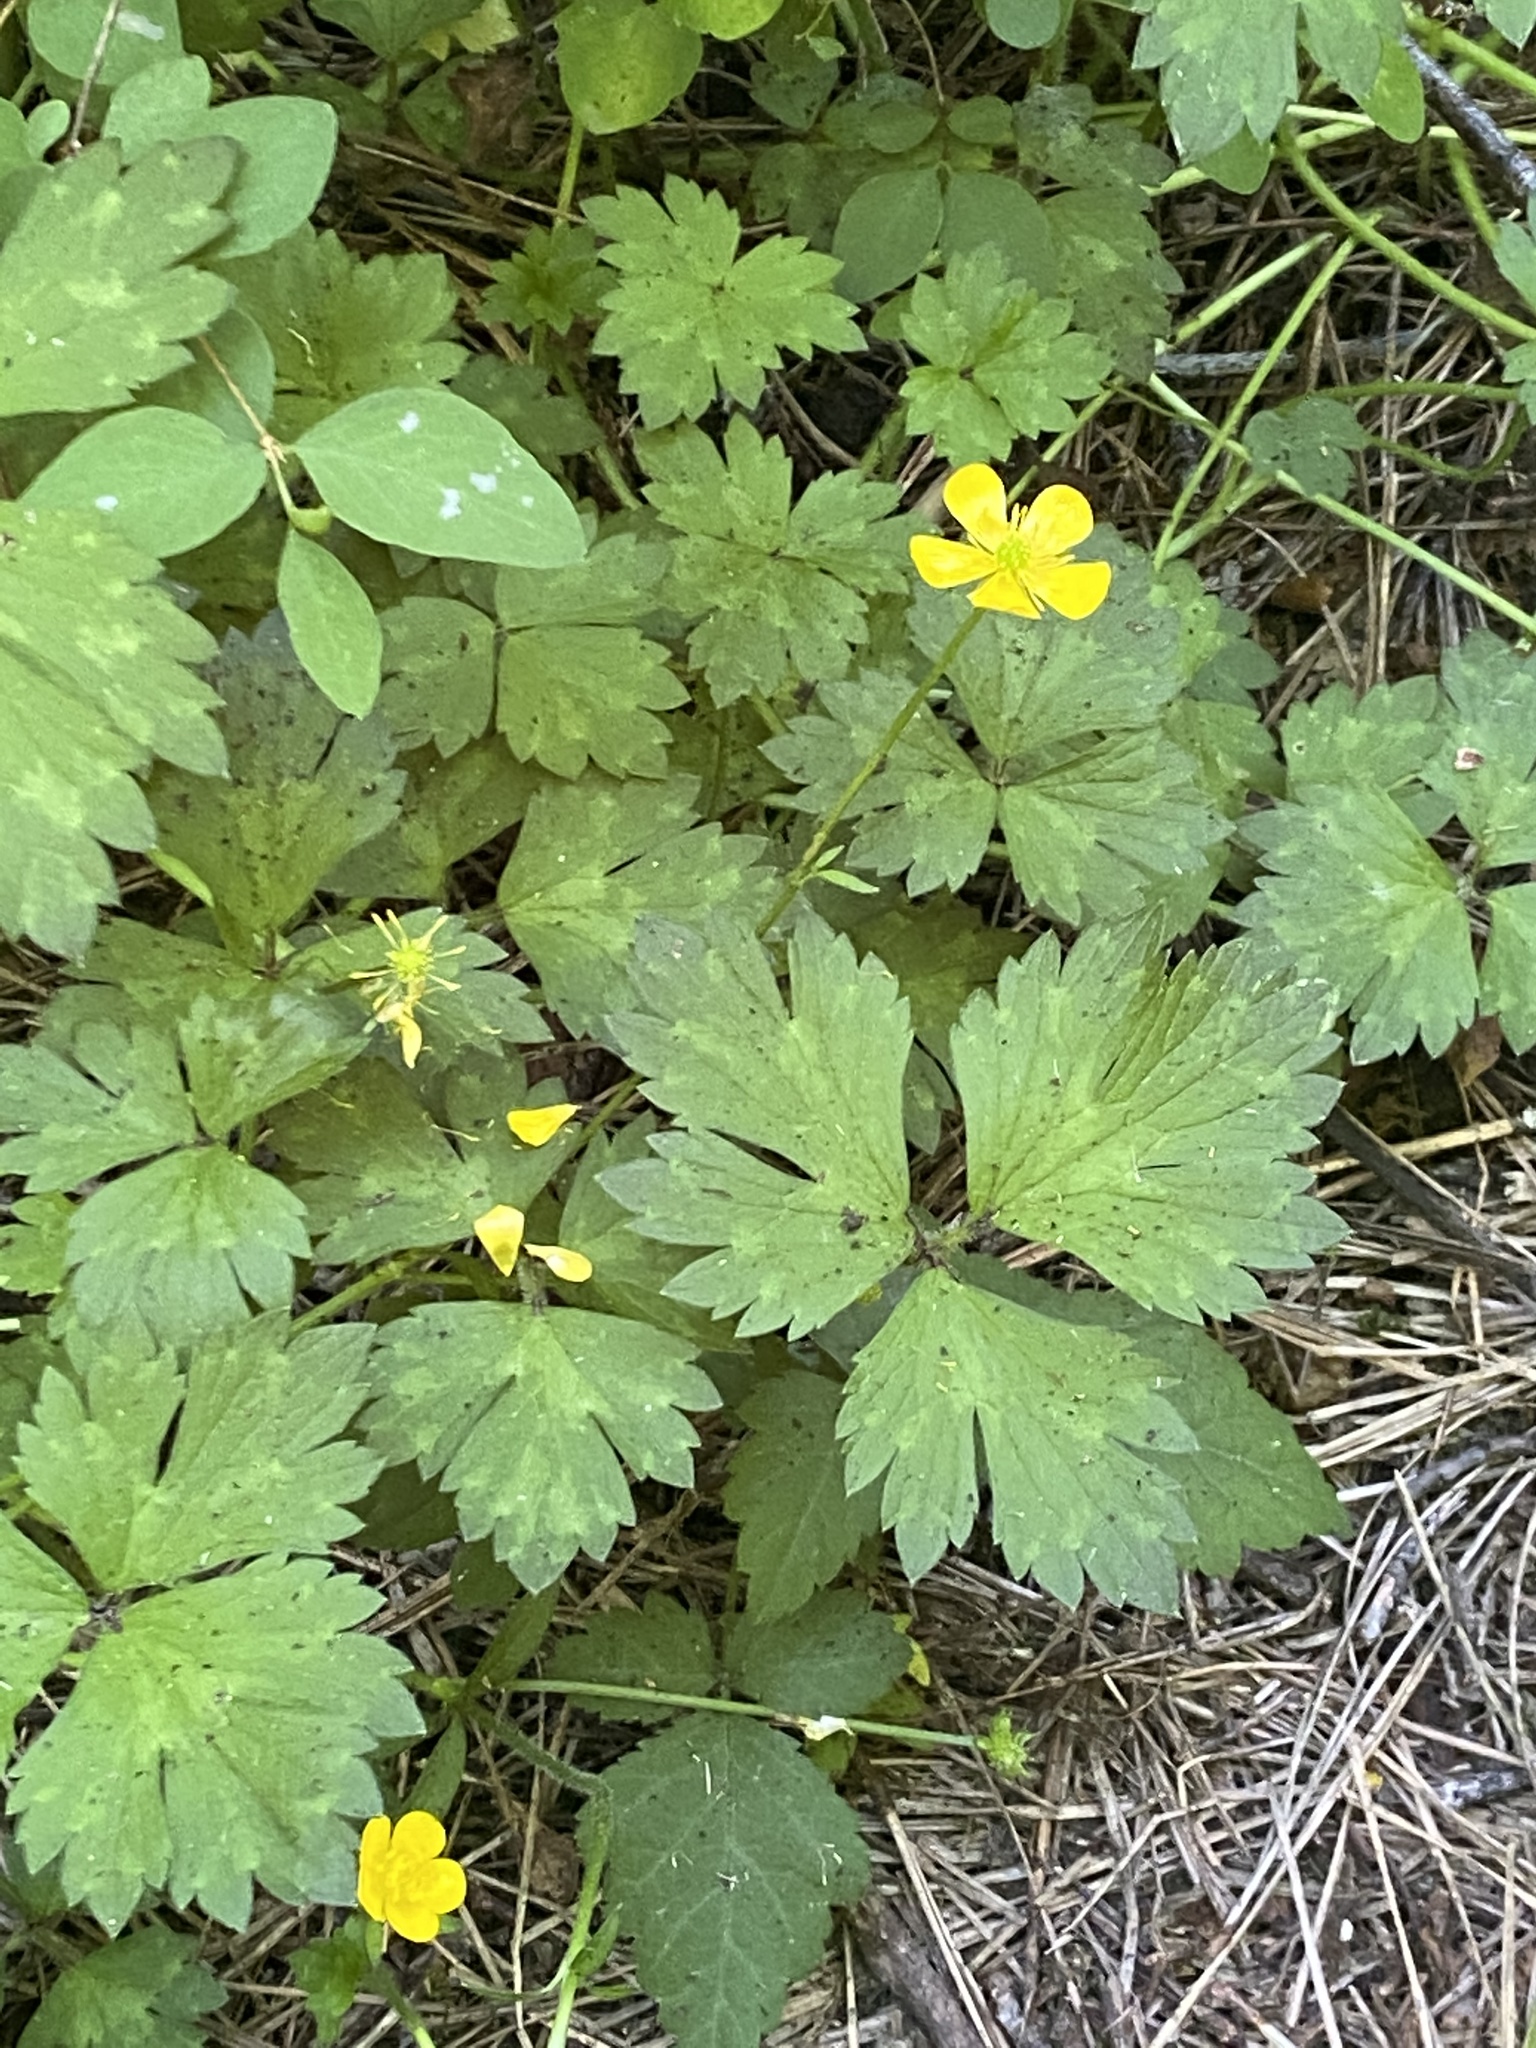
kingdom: Plantae
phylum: Tracheophyta
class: Magnoliopsida
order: Ranunculales
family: Ranunculaceae
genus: Ranunculus
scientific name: Ranunculus repens
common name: Creeping buttercup
